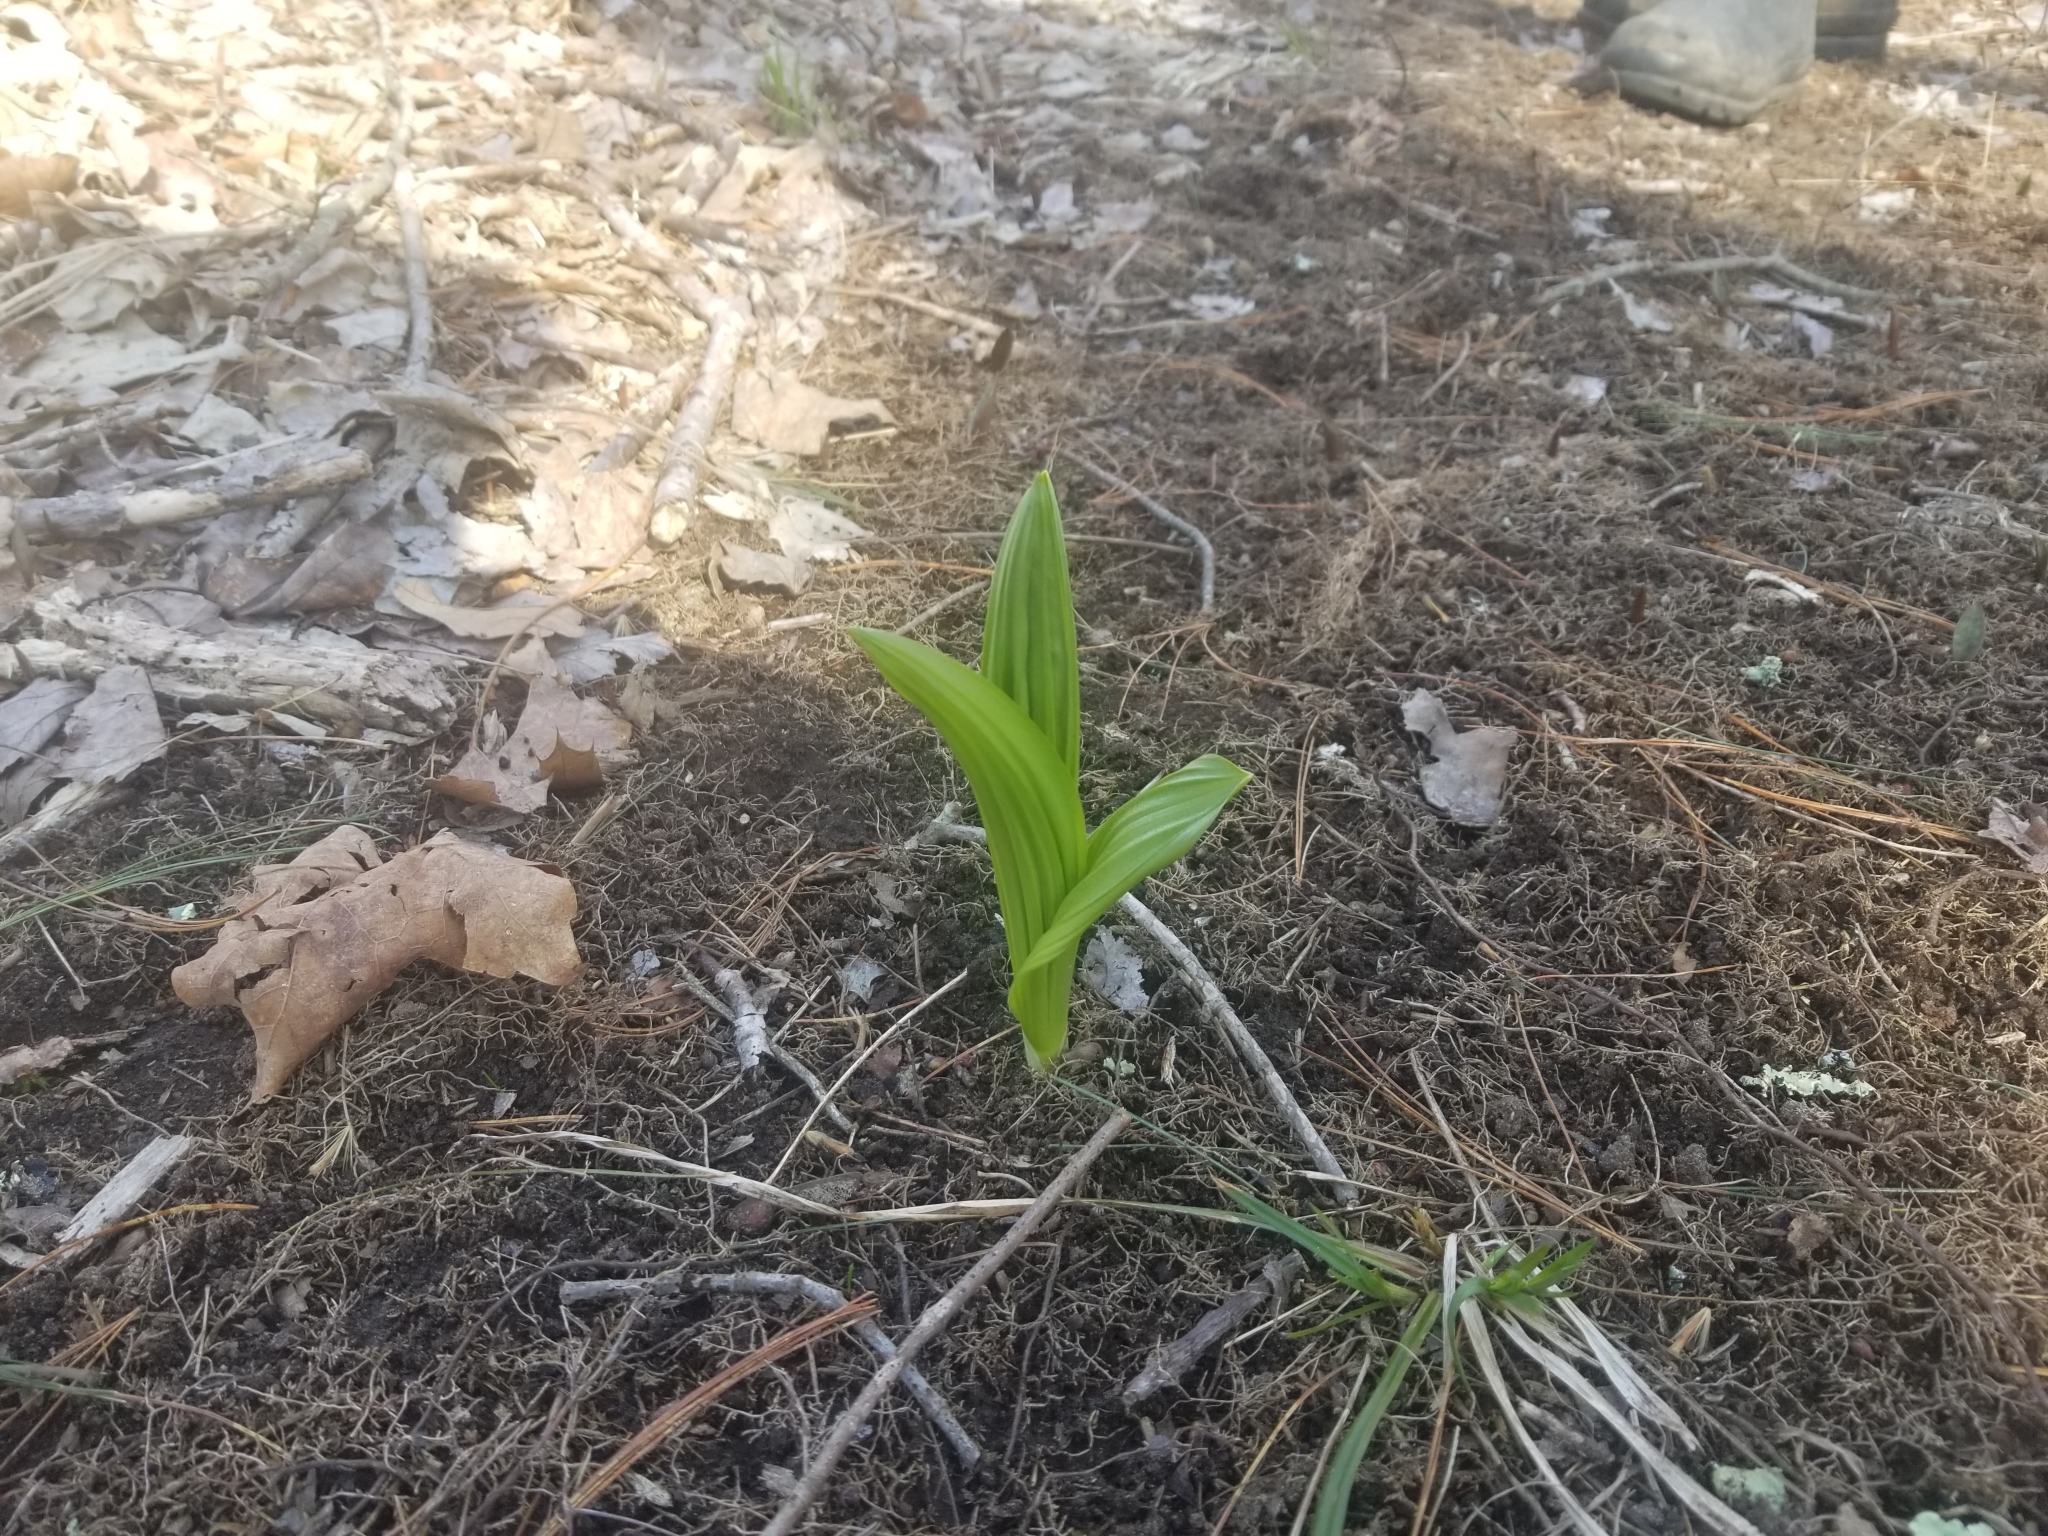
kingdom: Plantae
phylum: Tracheophyta
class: Liliopsida
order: Liliales
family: Melanthiaceae
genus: Veratrum
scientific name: Veratrum viride
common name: American false hellebore
